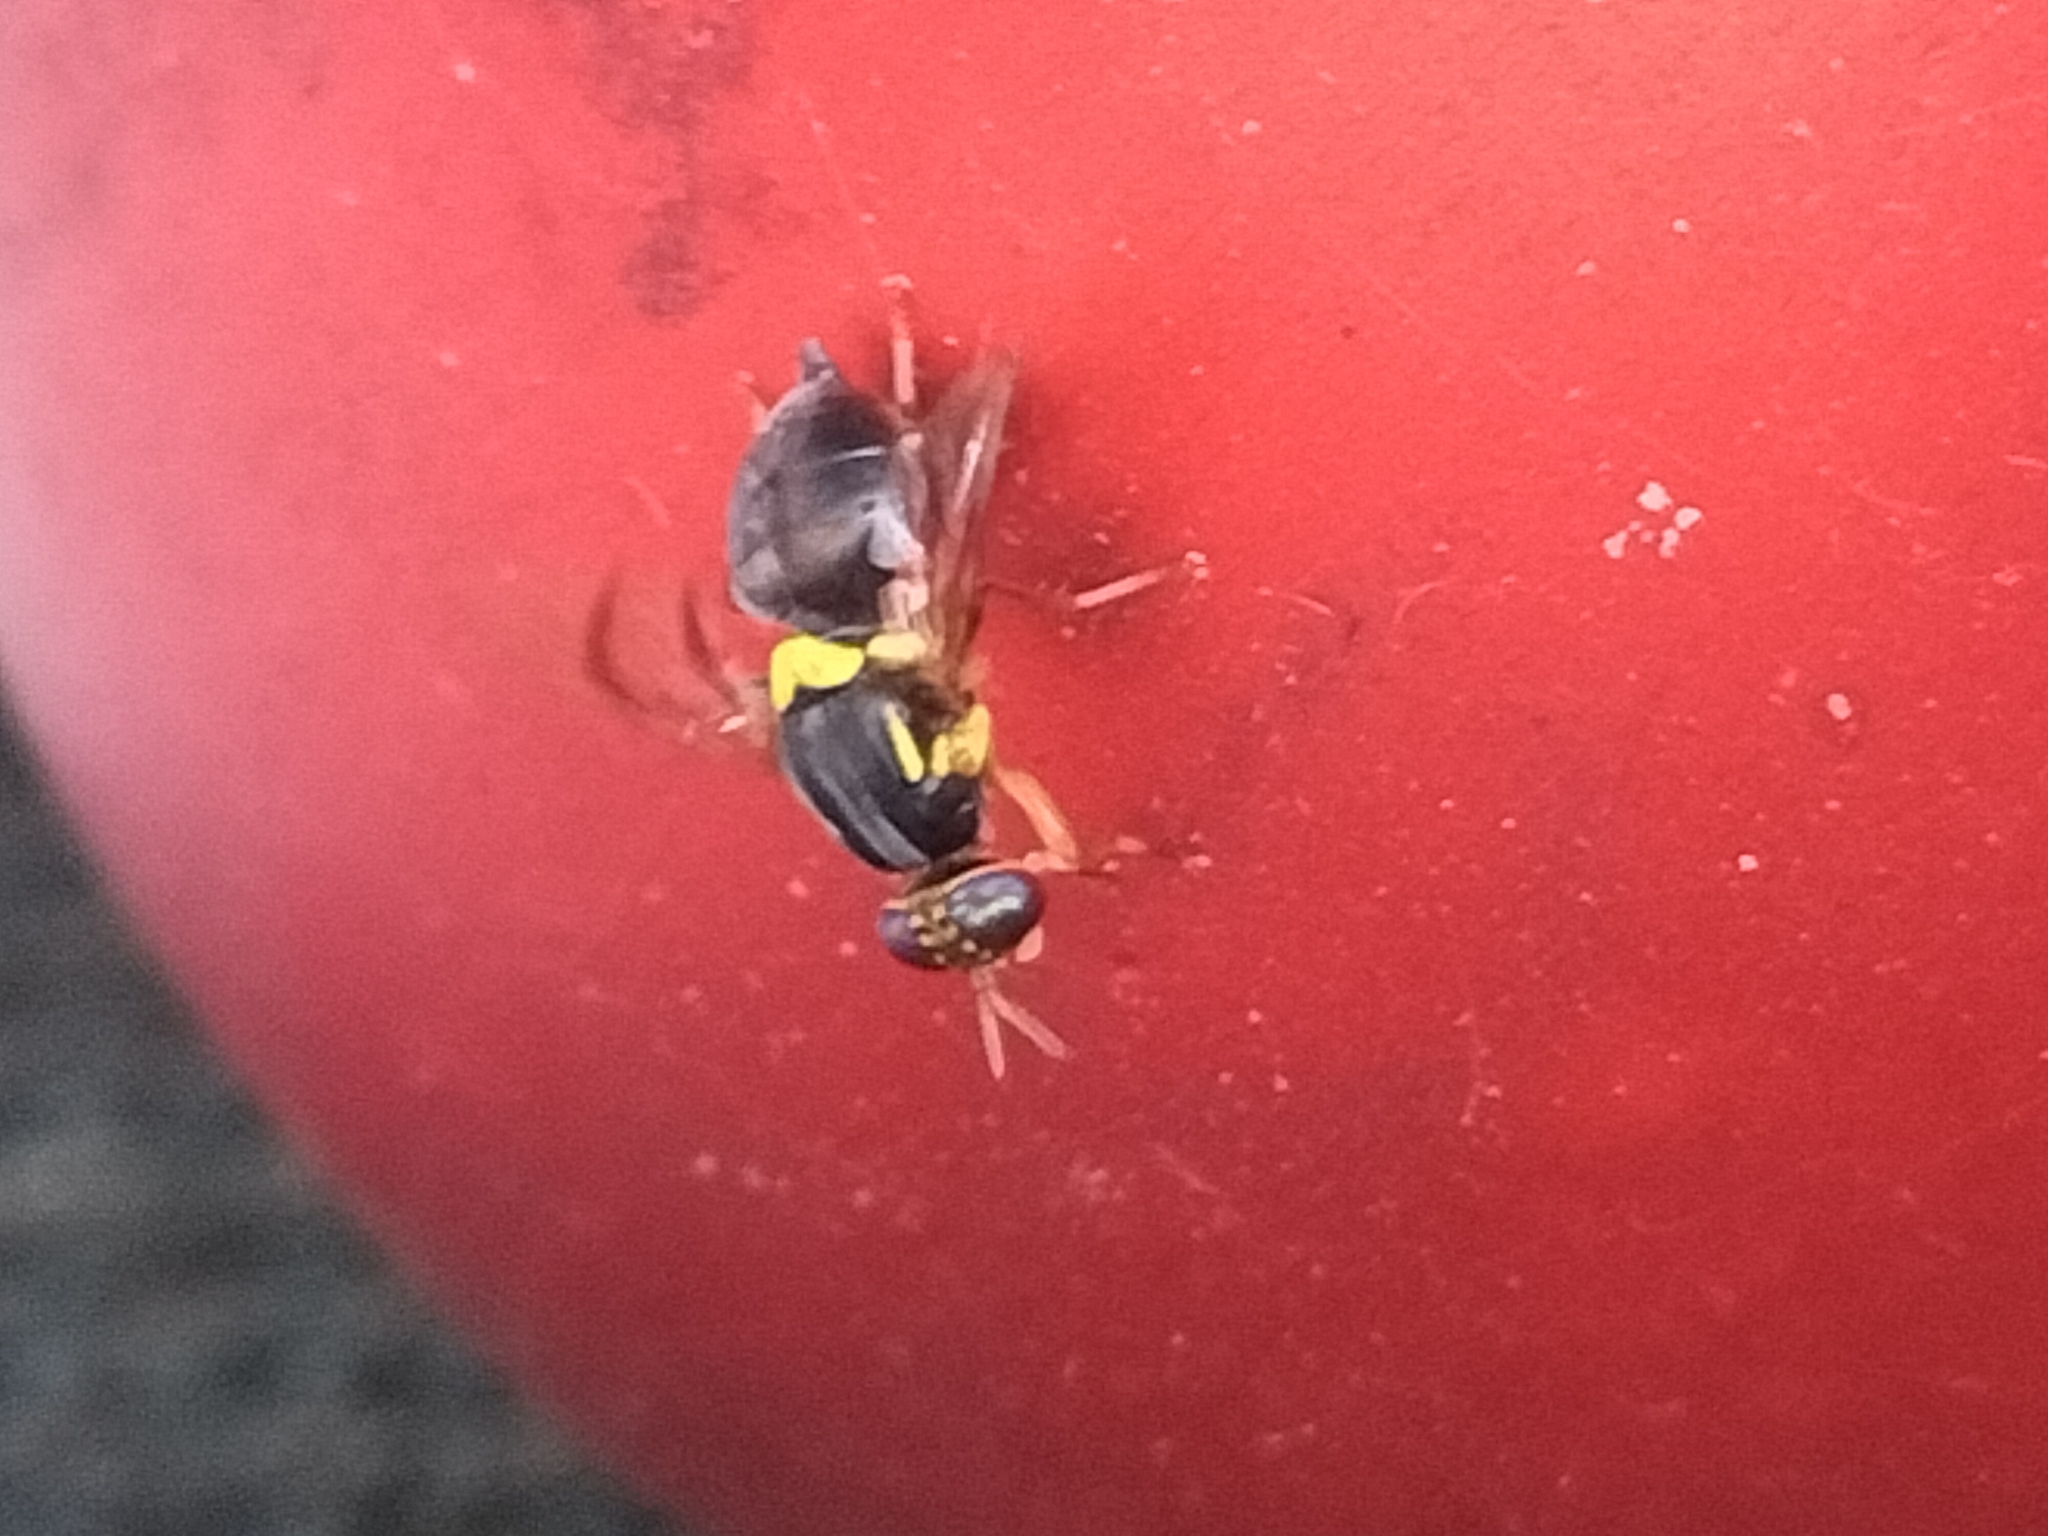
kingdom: Animalia
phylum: Arthropoda
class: Insecta
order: Diptera
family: Tephritidae
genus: Bactrocera
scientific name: Bactrocera frauenfeldi
